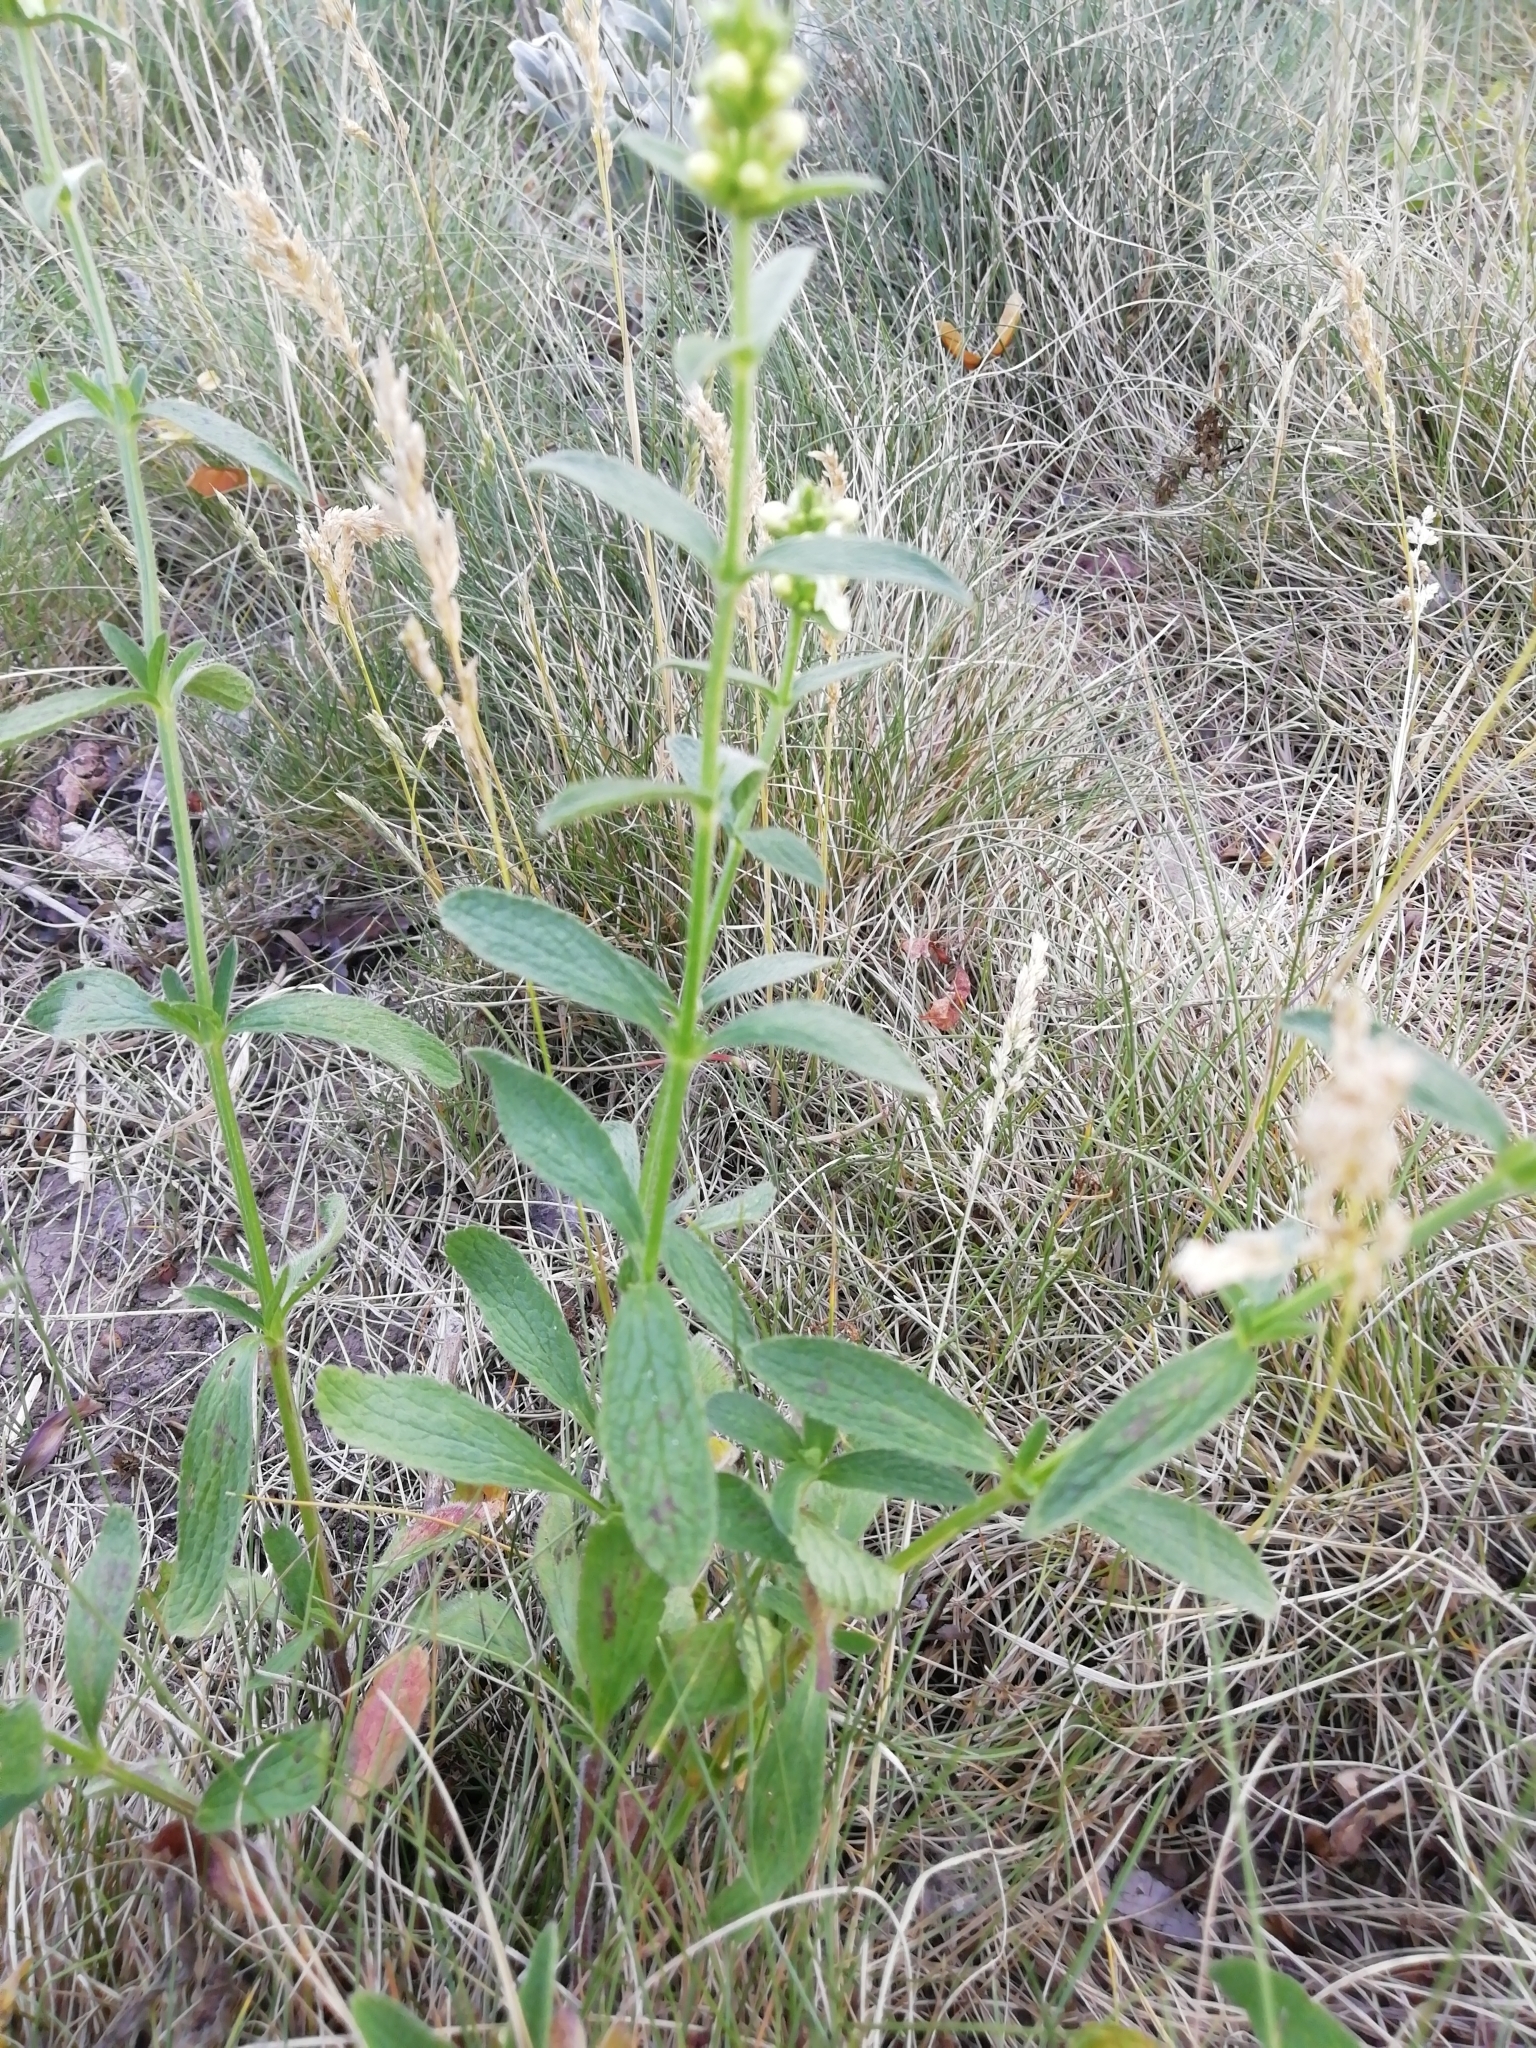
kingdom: Plantae
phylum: Tracheophyta
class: Magnoliopsida
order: Lamiales
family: Lamiaceae
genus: Stachys
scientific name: Stachys recta
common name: Perennial yellow-woundwort
